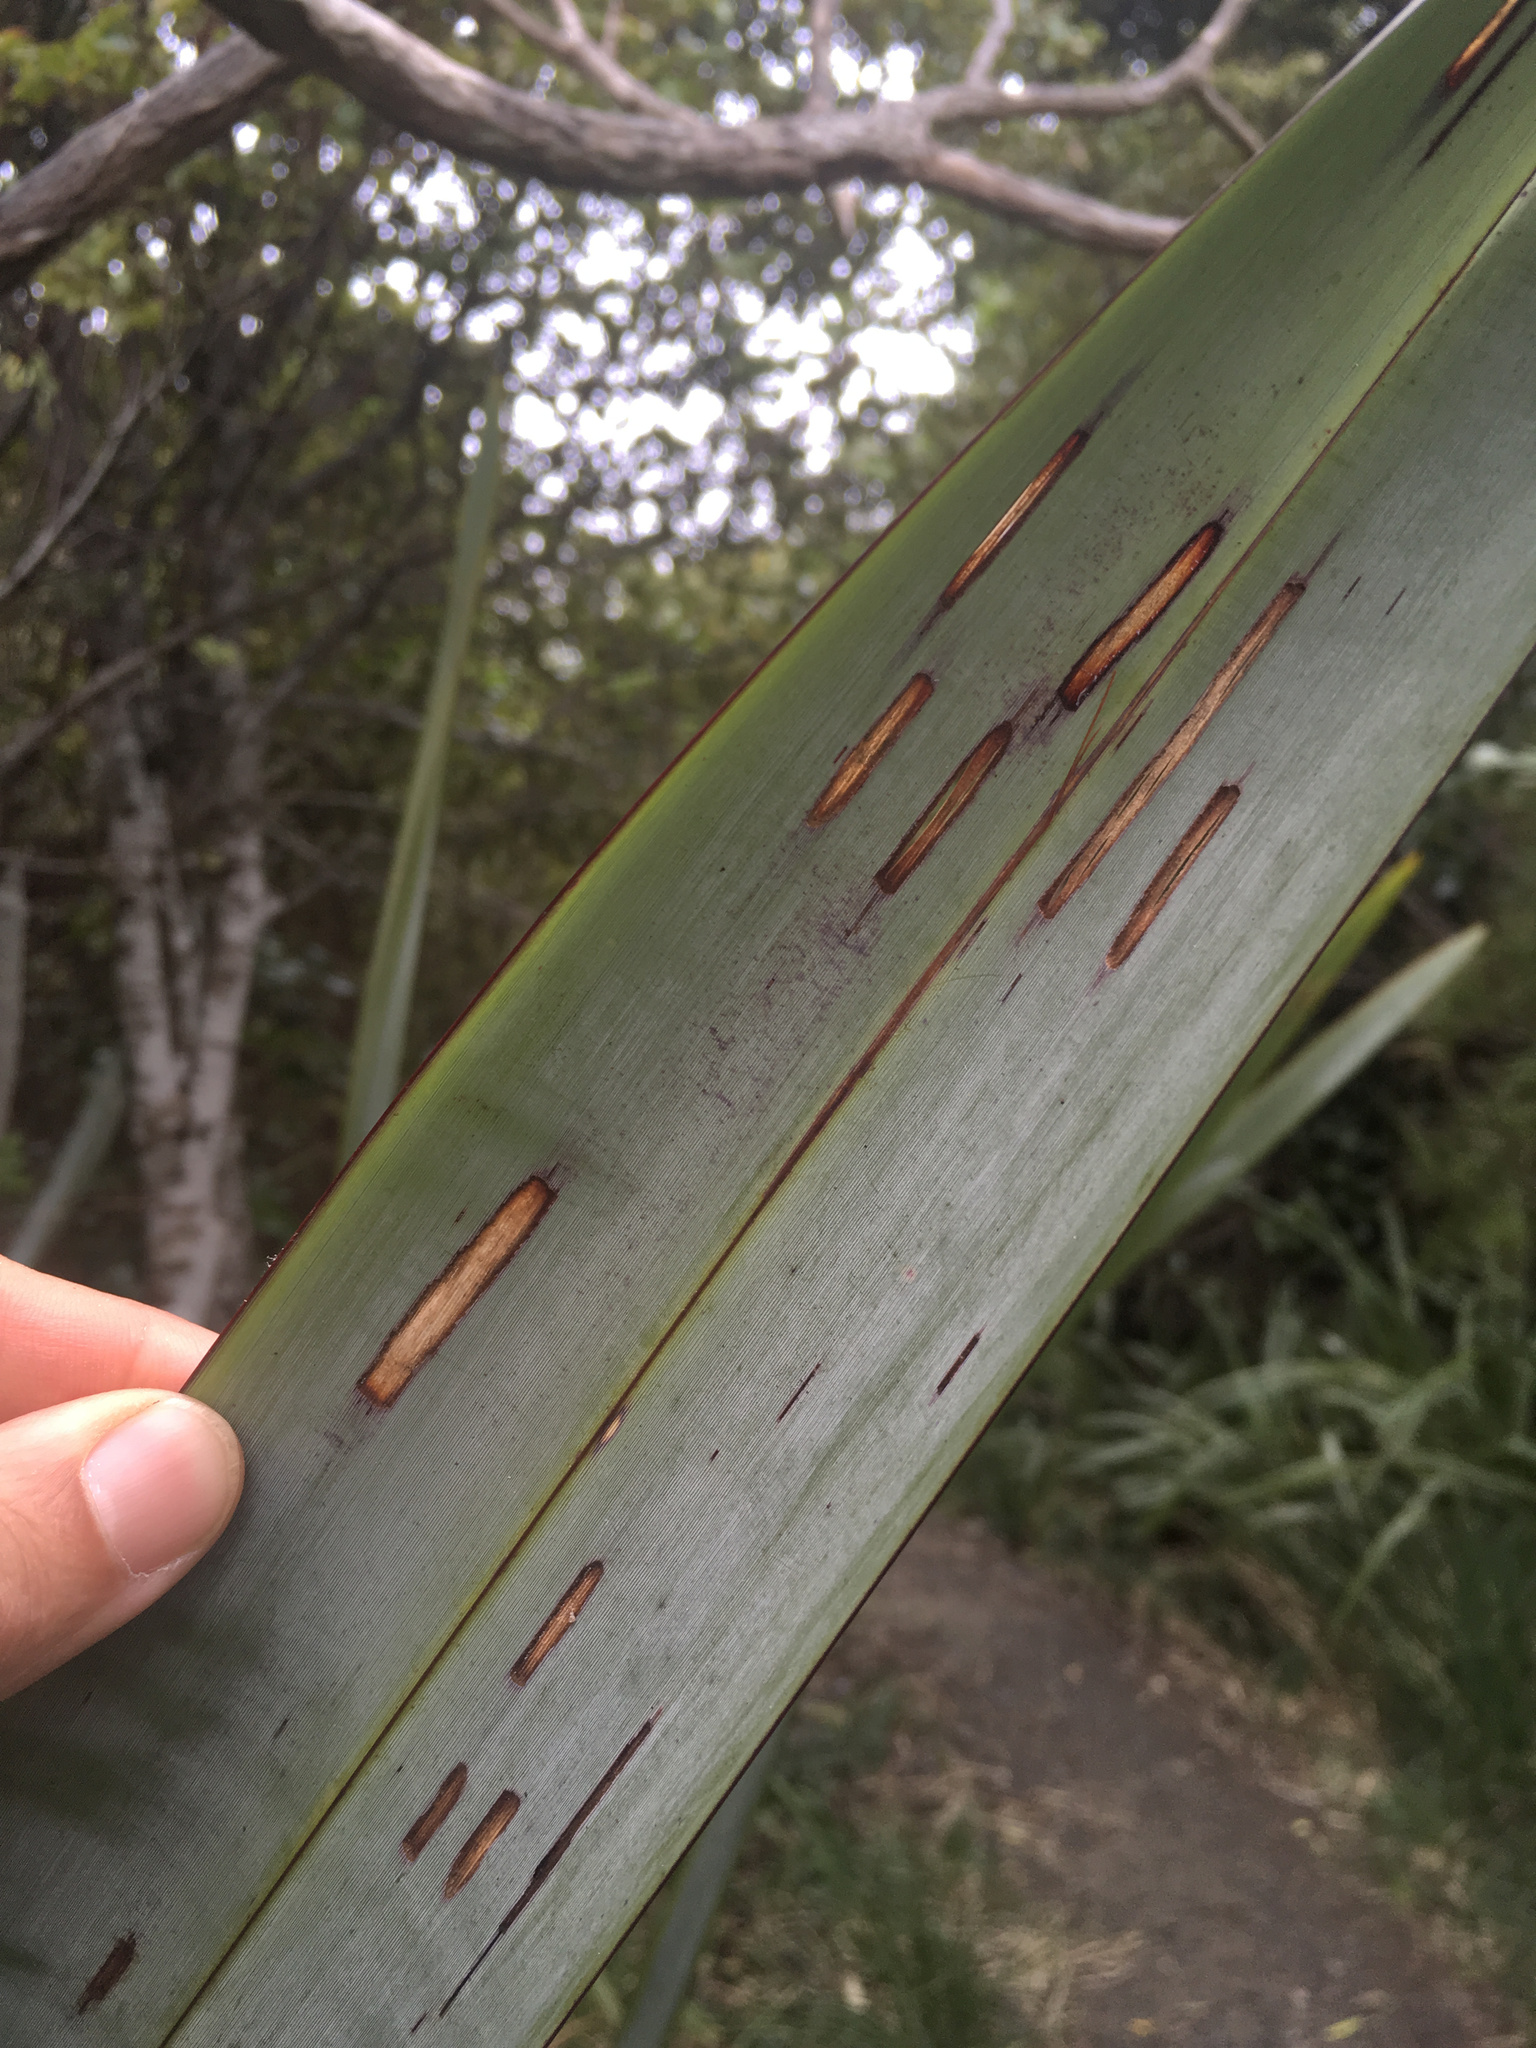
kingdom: Animalia
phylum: Arthropoda
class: Insecta
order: Lepidoptera
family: Geometridae
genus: Orthoclydon
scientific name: Orthoclydon praefectata
